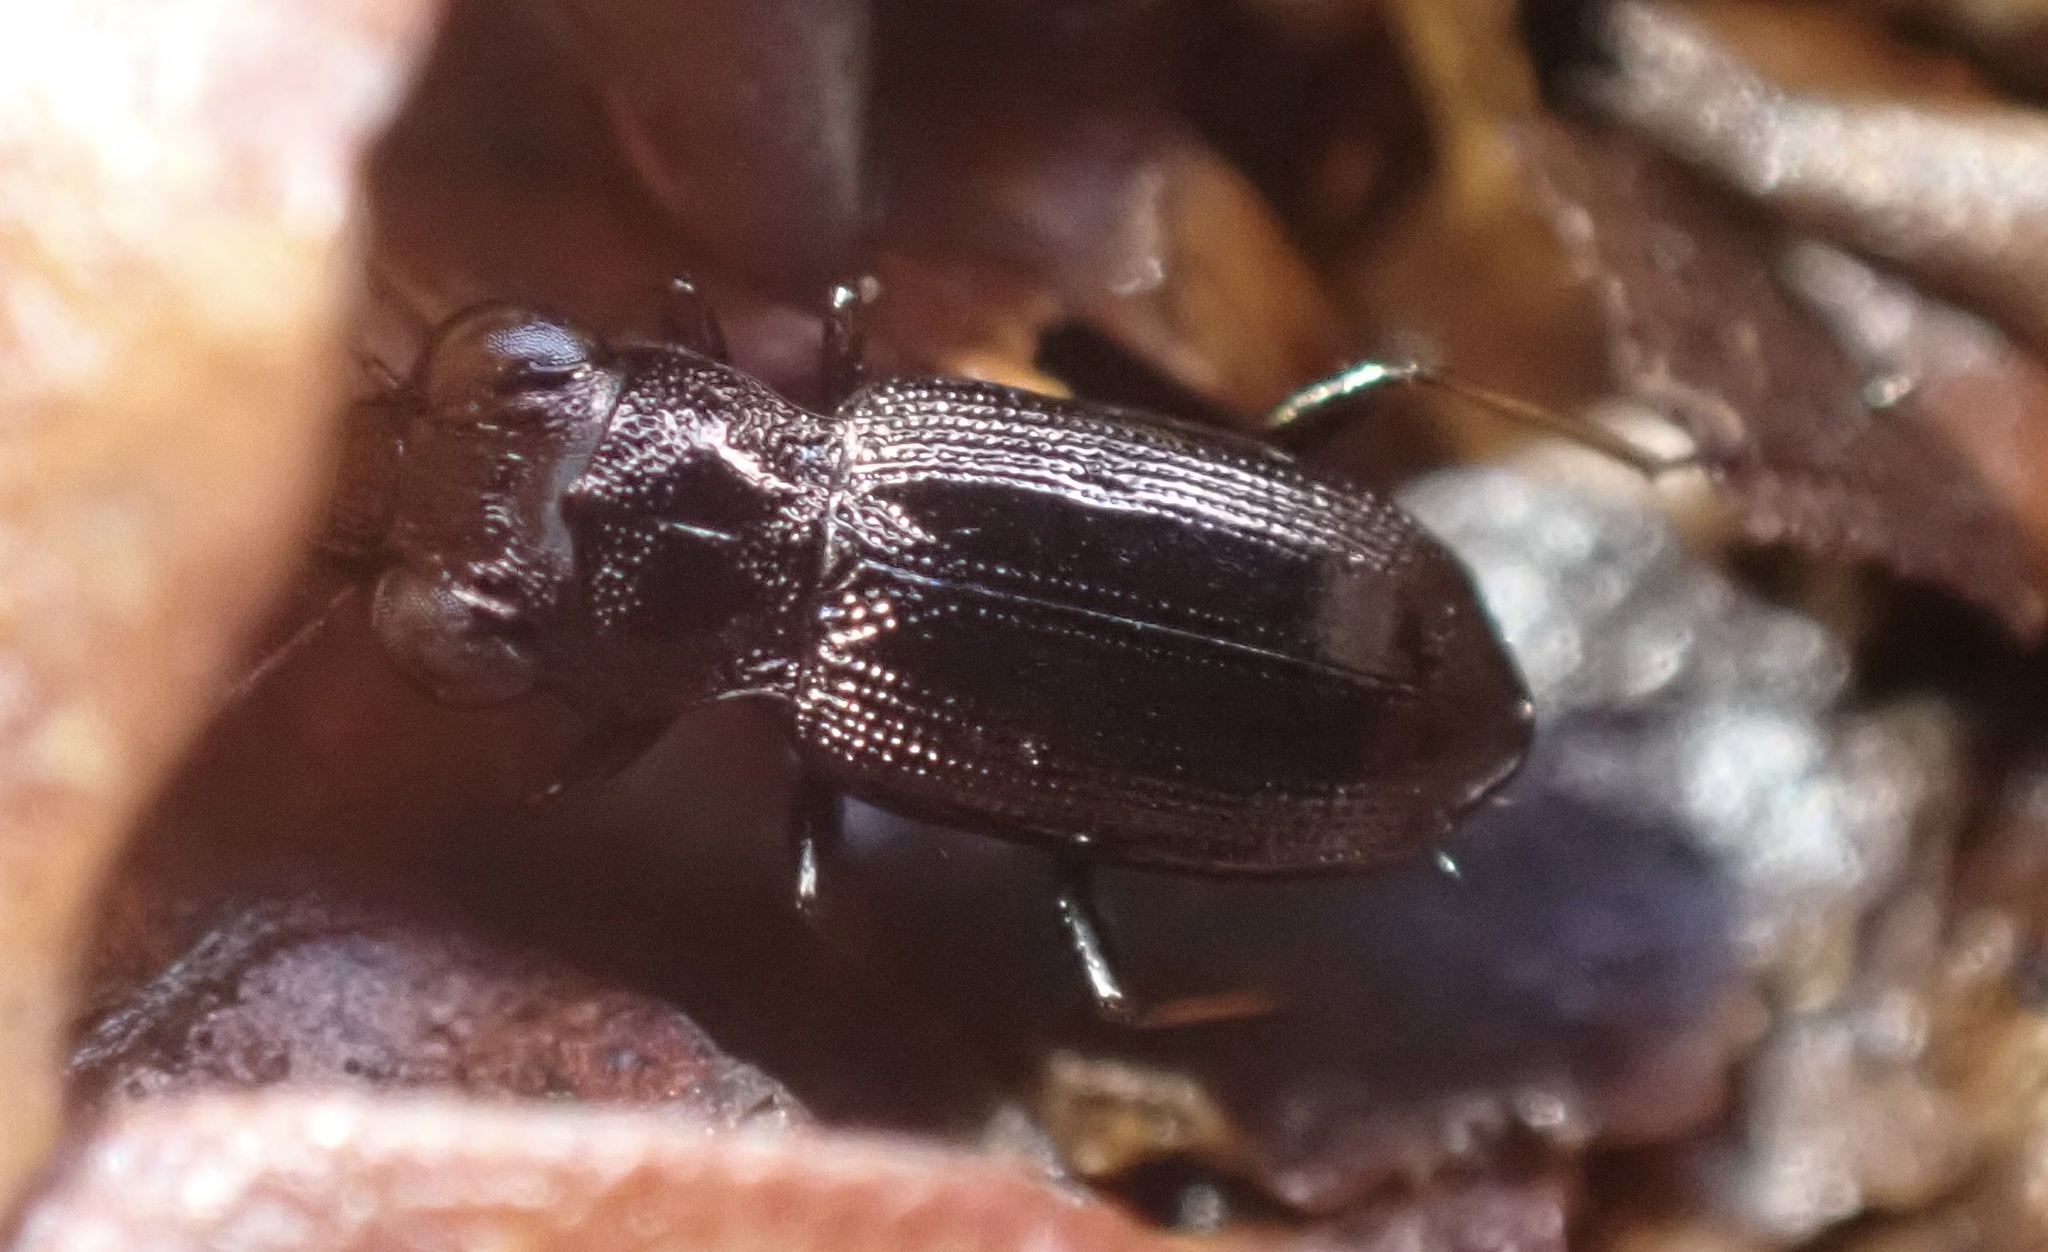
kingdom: Animalia
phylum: Arthropoda
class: Insecta
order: Coleoptera
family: Carabidae
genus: Notiophilus
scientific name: Notiophilus rufipes
